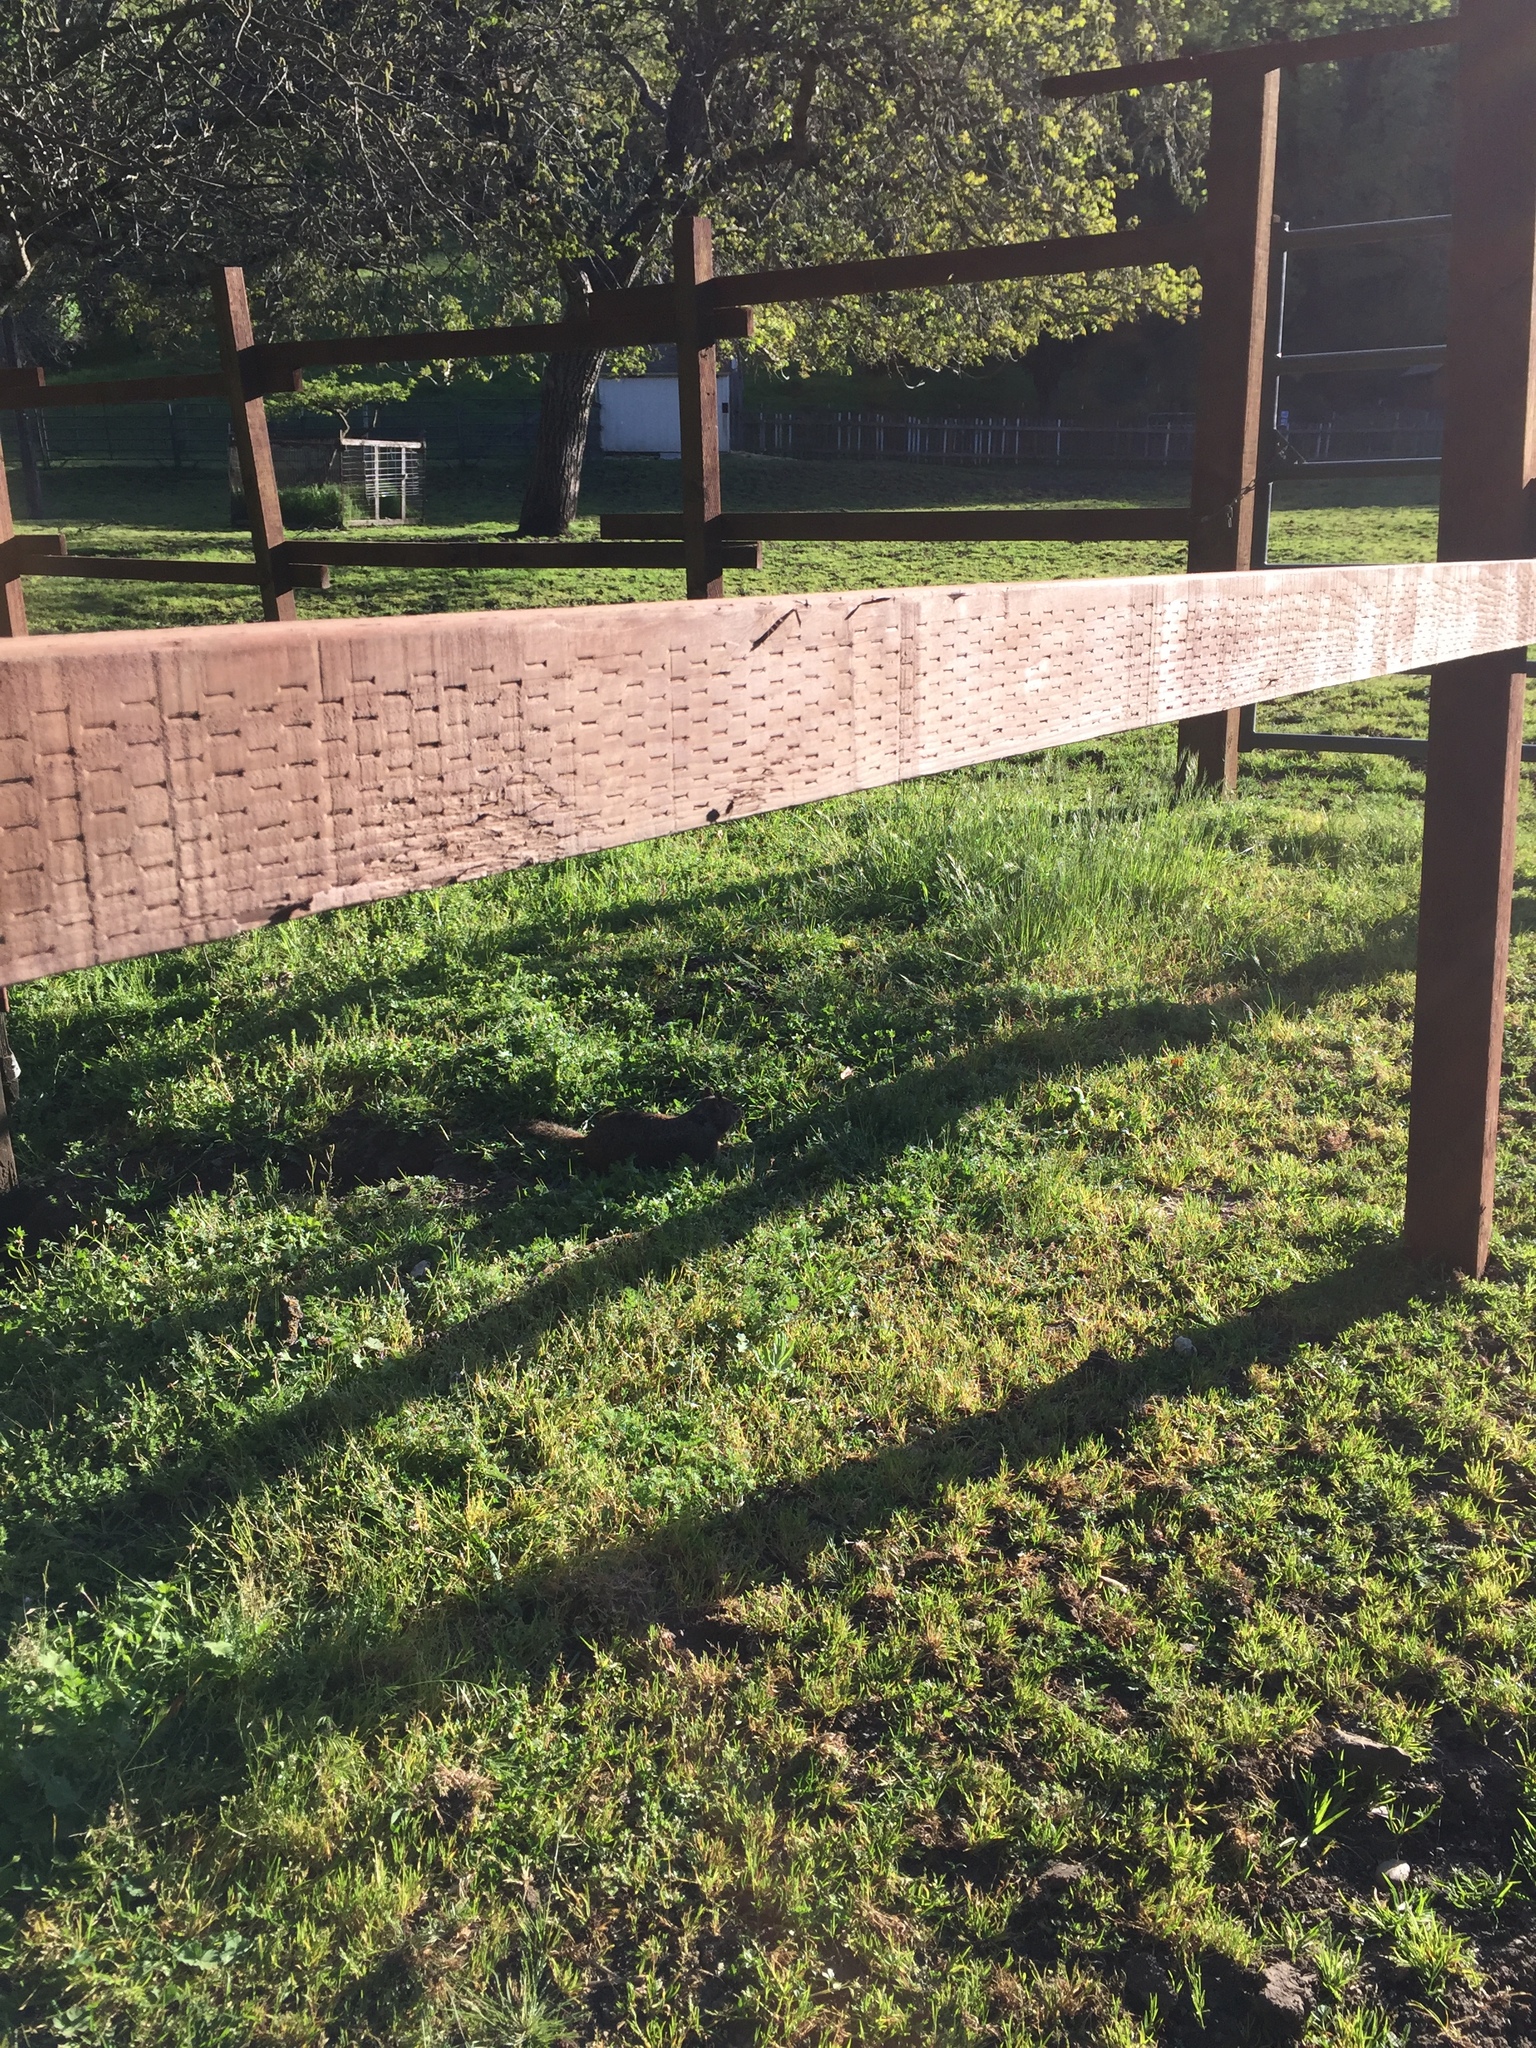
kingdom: Animalia
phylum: Chordata
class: Mammalia
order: Rodentia
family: Sciuridae
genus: Otospermophilus
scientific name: Otospermophilus beecheyi
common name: California ground squirrel
